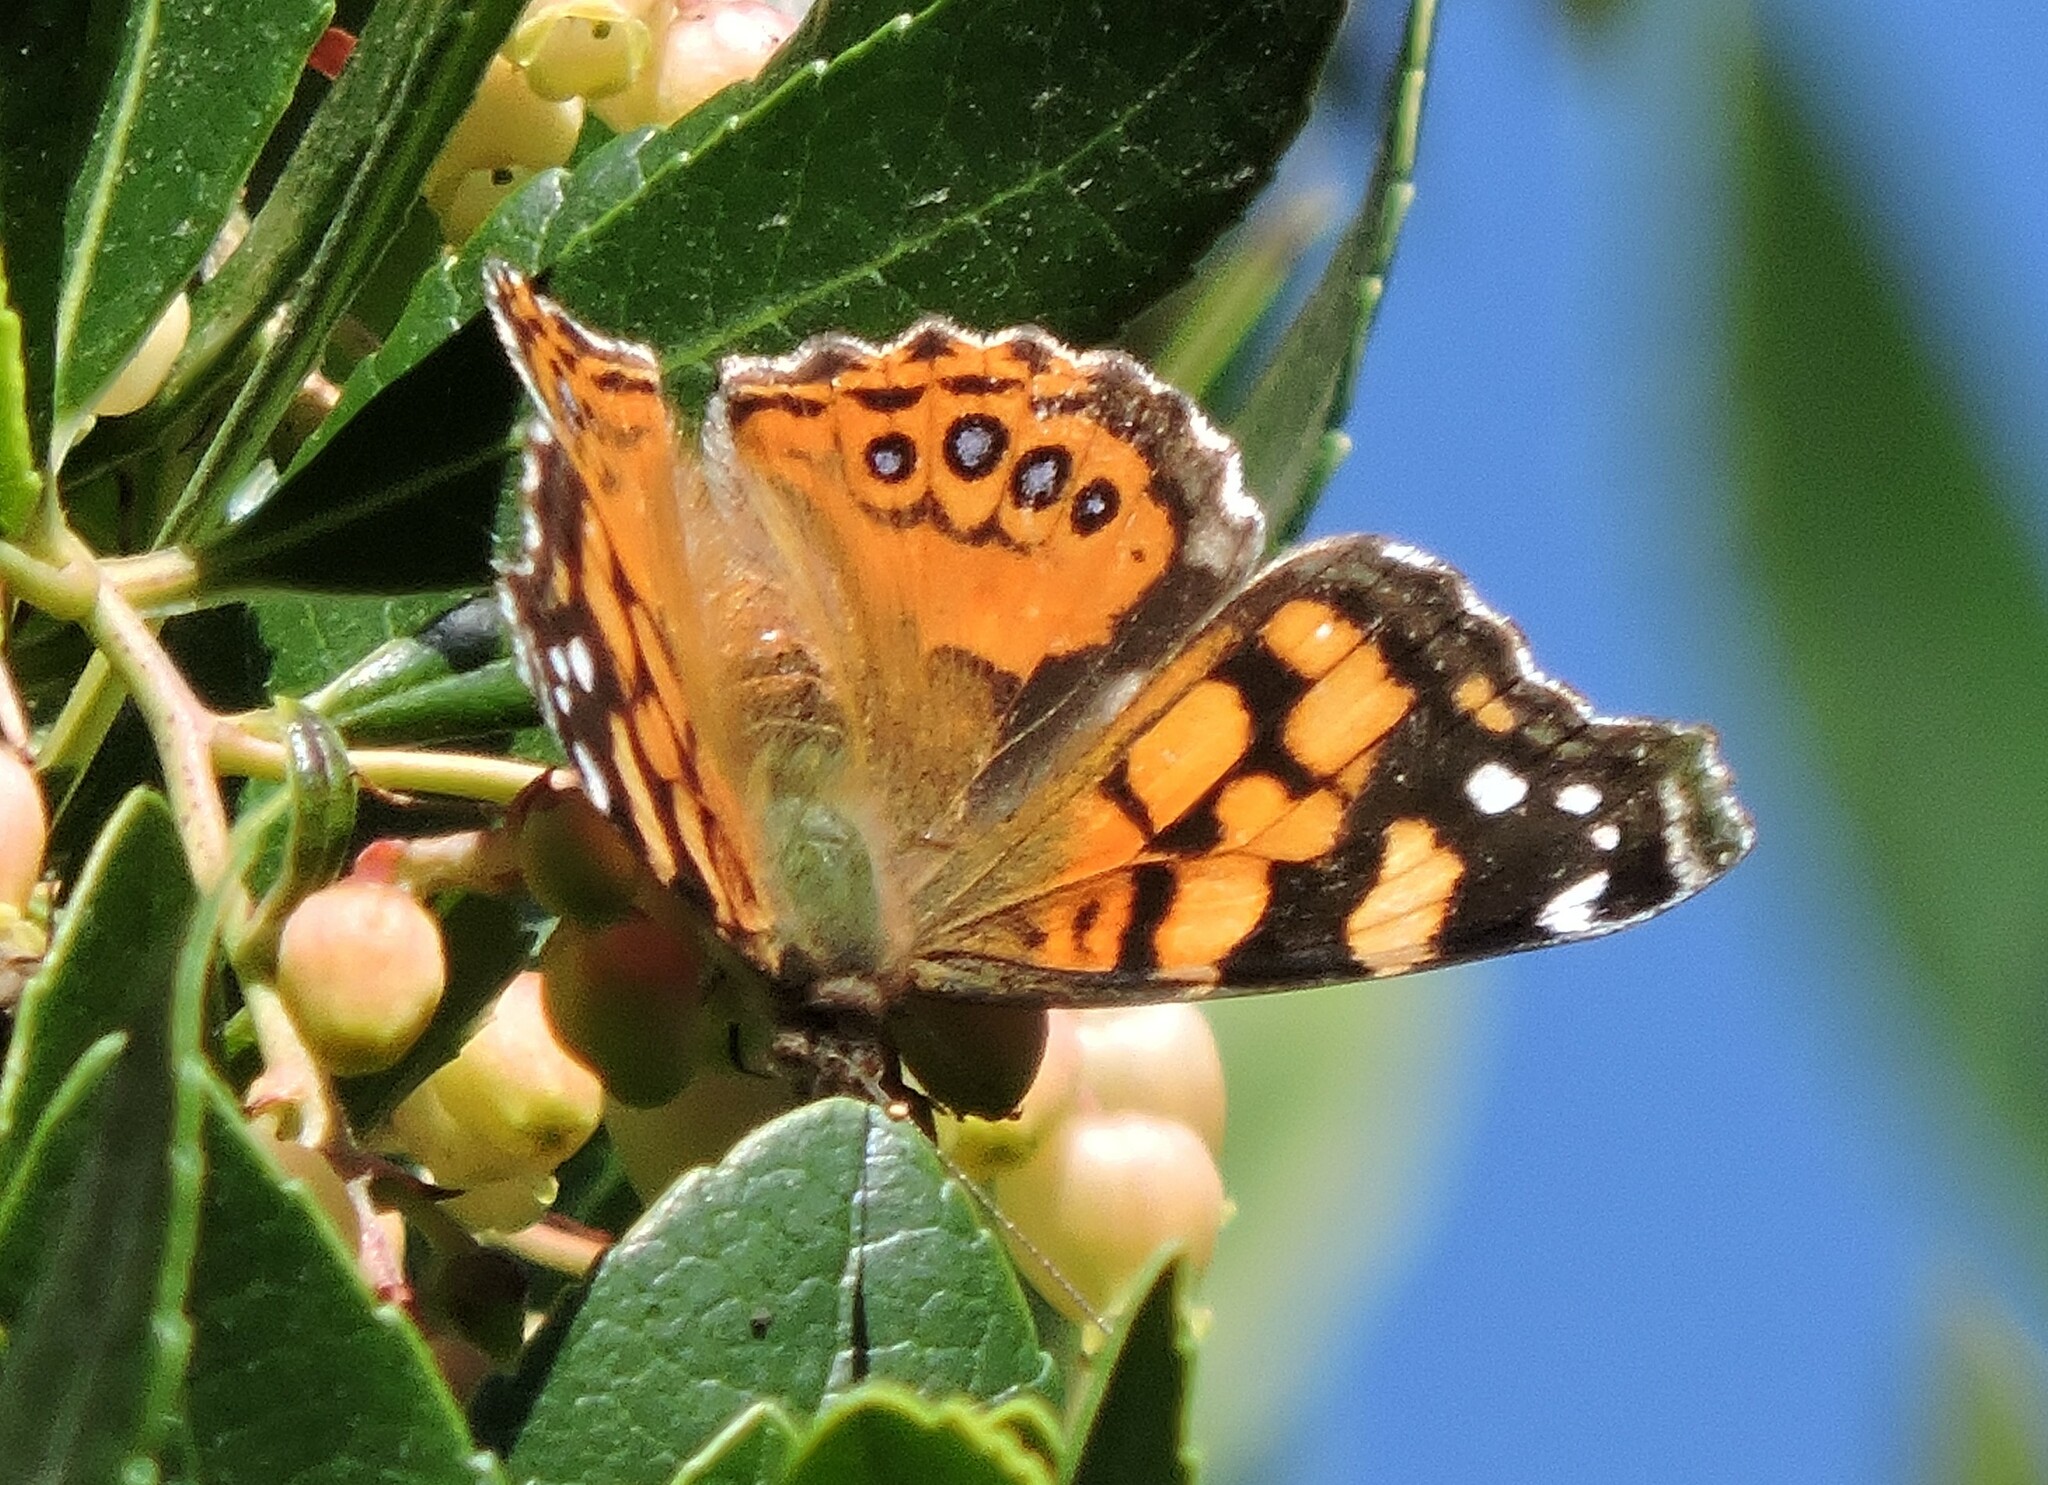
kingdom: Animalia
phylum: Arthropoda
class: Insecta
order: Lepidoptera
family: Nymphalidae
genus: Vanessa
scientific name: Vanessa annabella
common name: West coast lady
